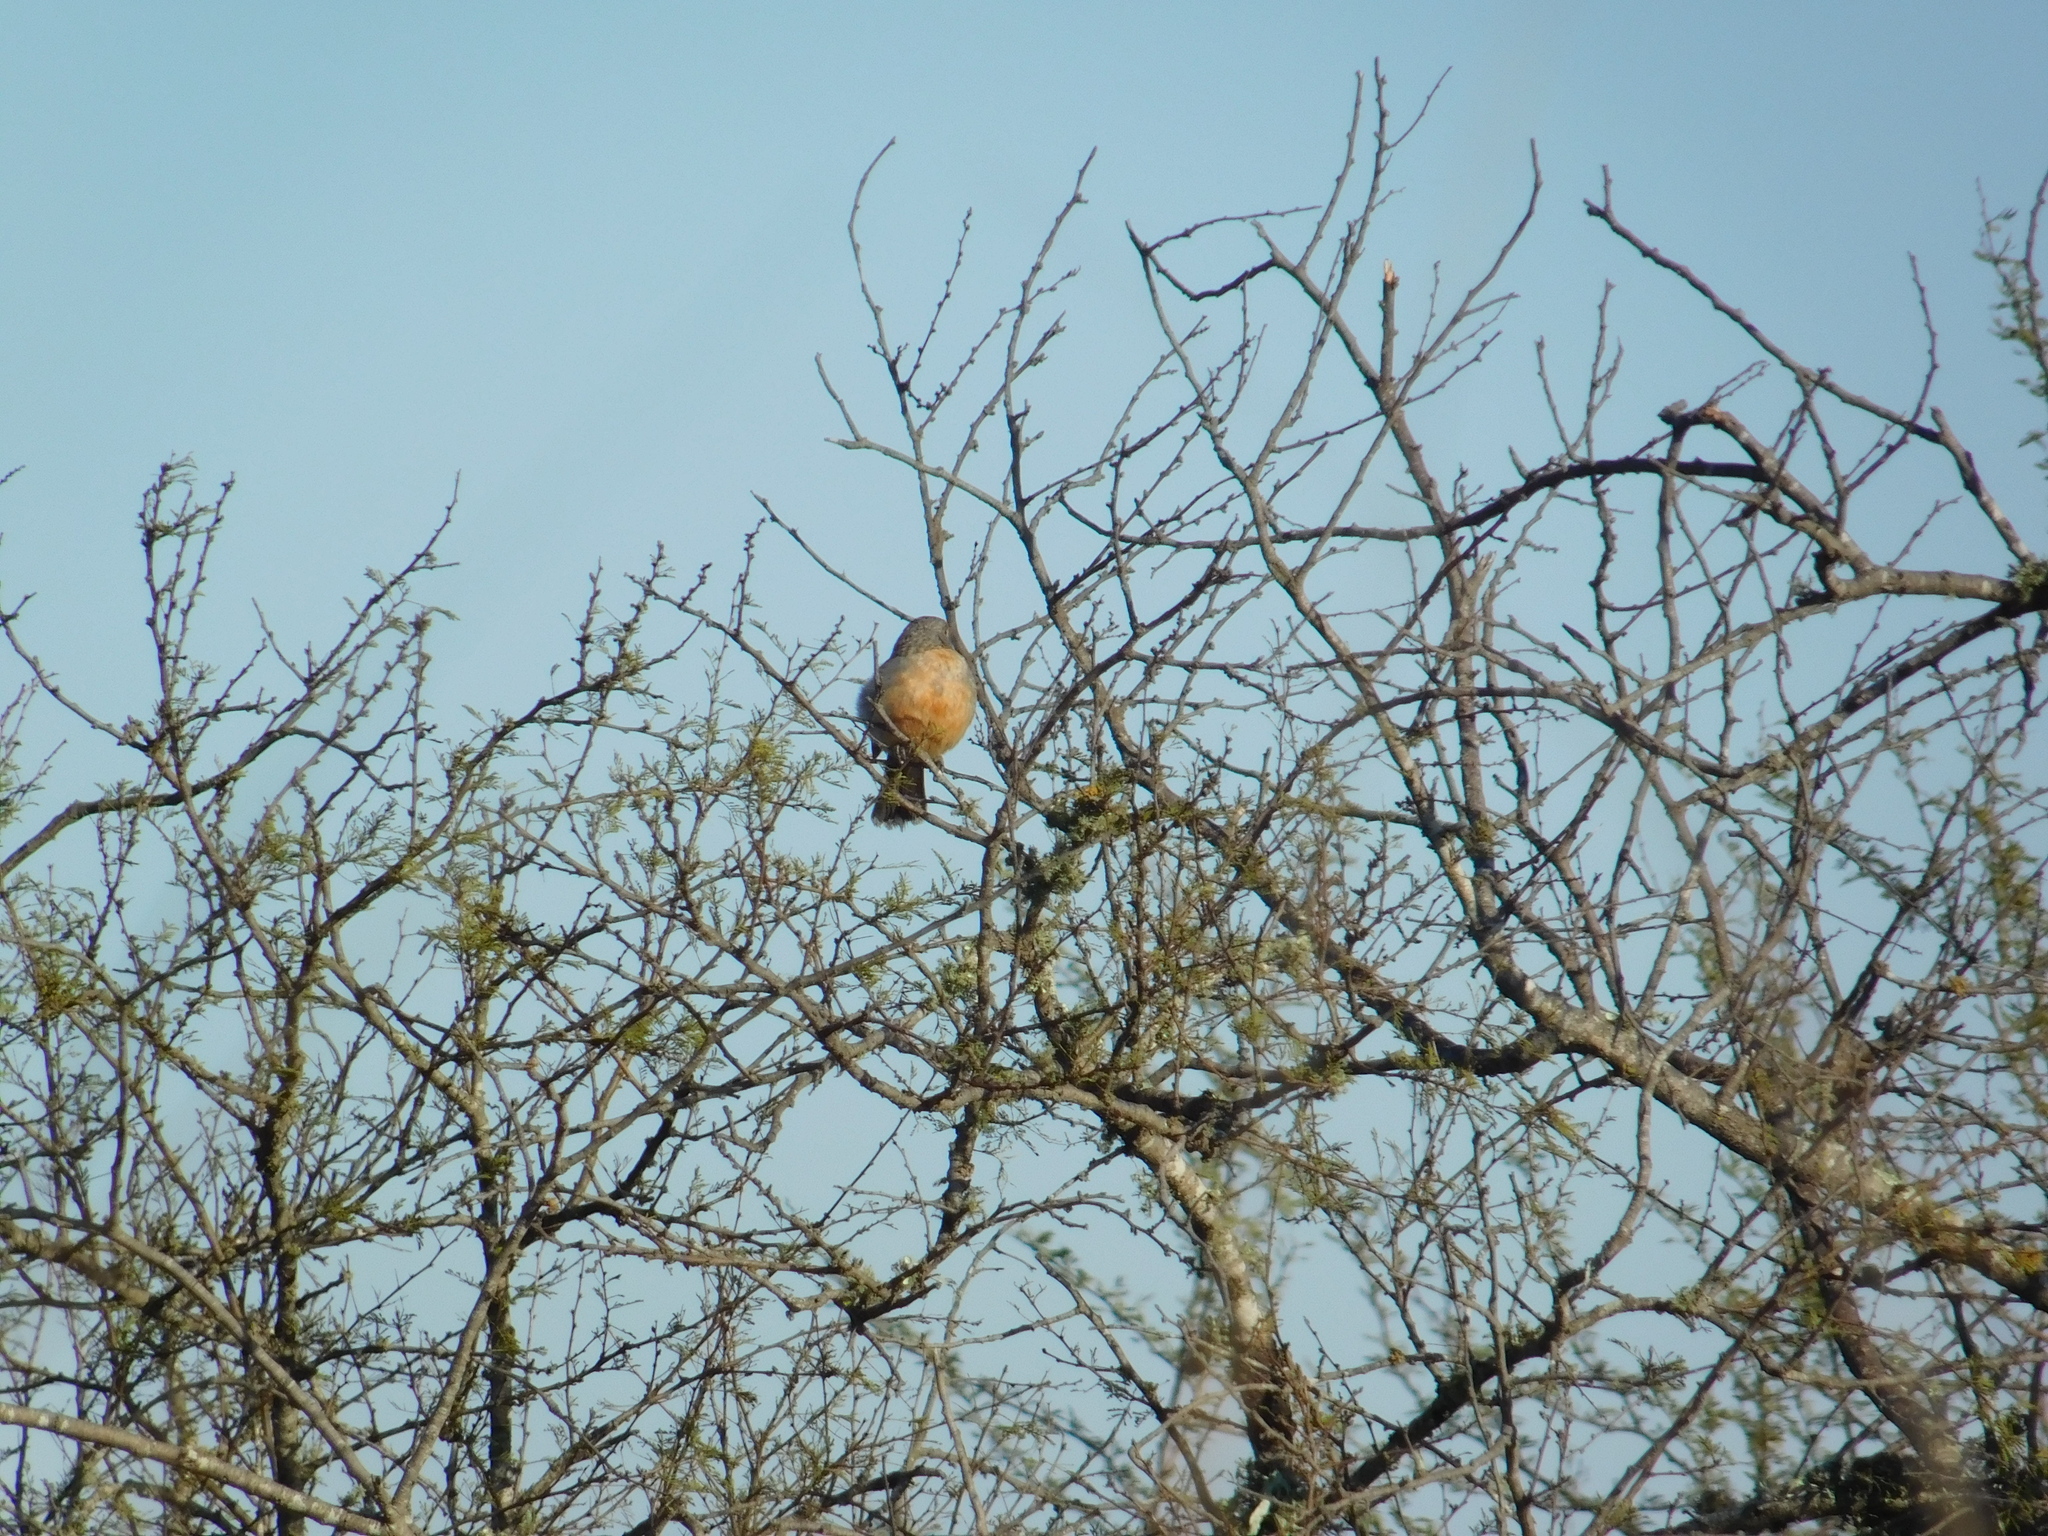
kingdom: Animalia
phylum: Chordata
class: Aves
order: Passeriformes
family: Cotingidae
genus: Phytotoma
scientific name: Phytotoma rutila
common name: White-tipped plantcutter
